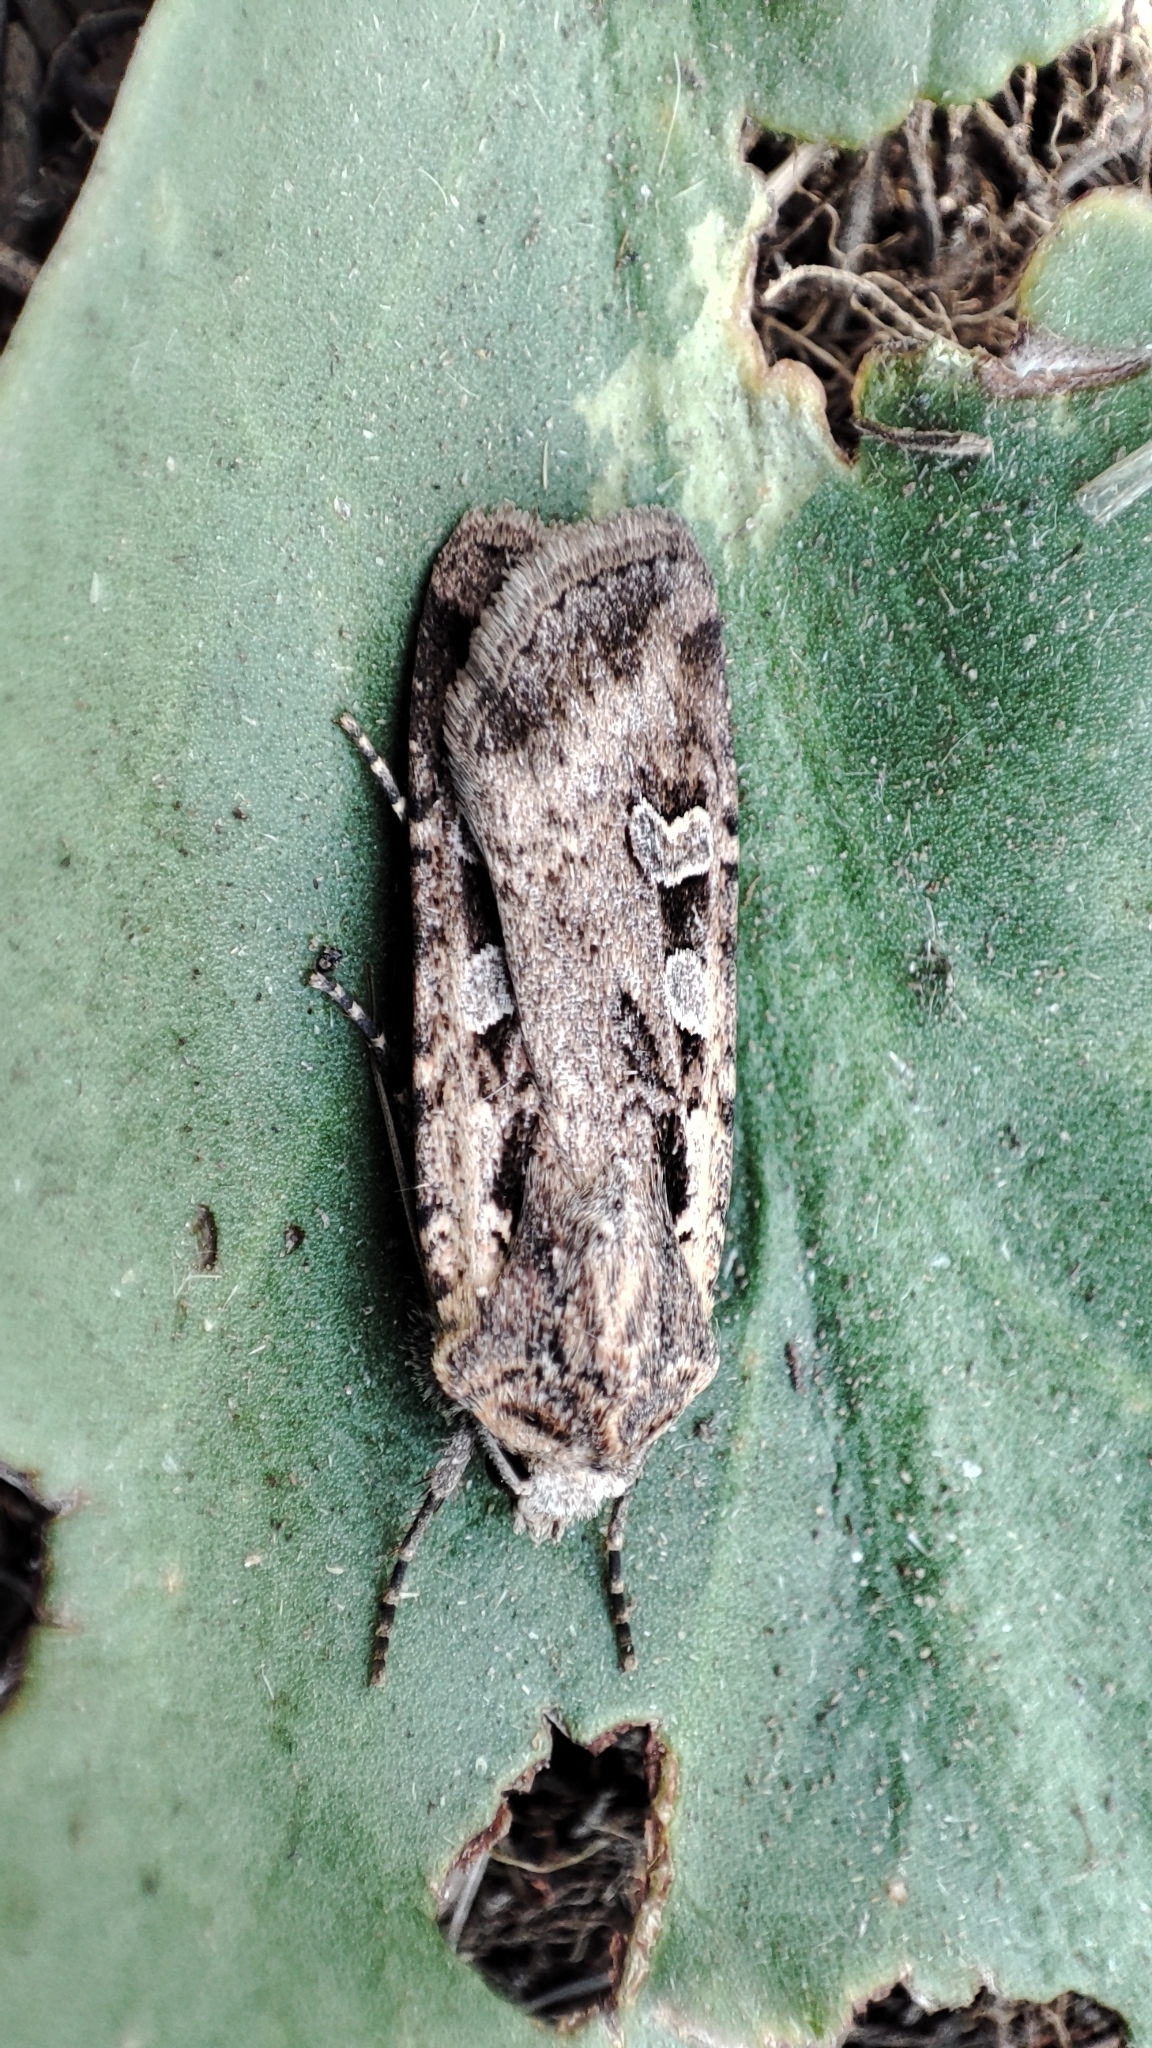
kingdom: Animalia
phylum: Arthropoda
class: Insecta
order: Lepidoptera
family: Noctuidae
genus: Euxoa
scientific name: Euxoa ochrogaster
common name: Red-backed cutworm moth
